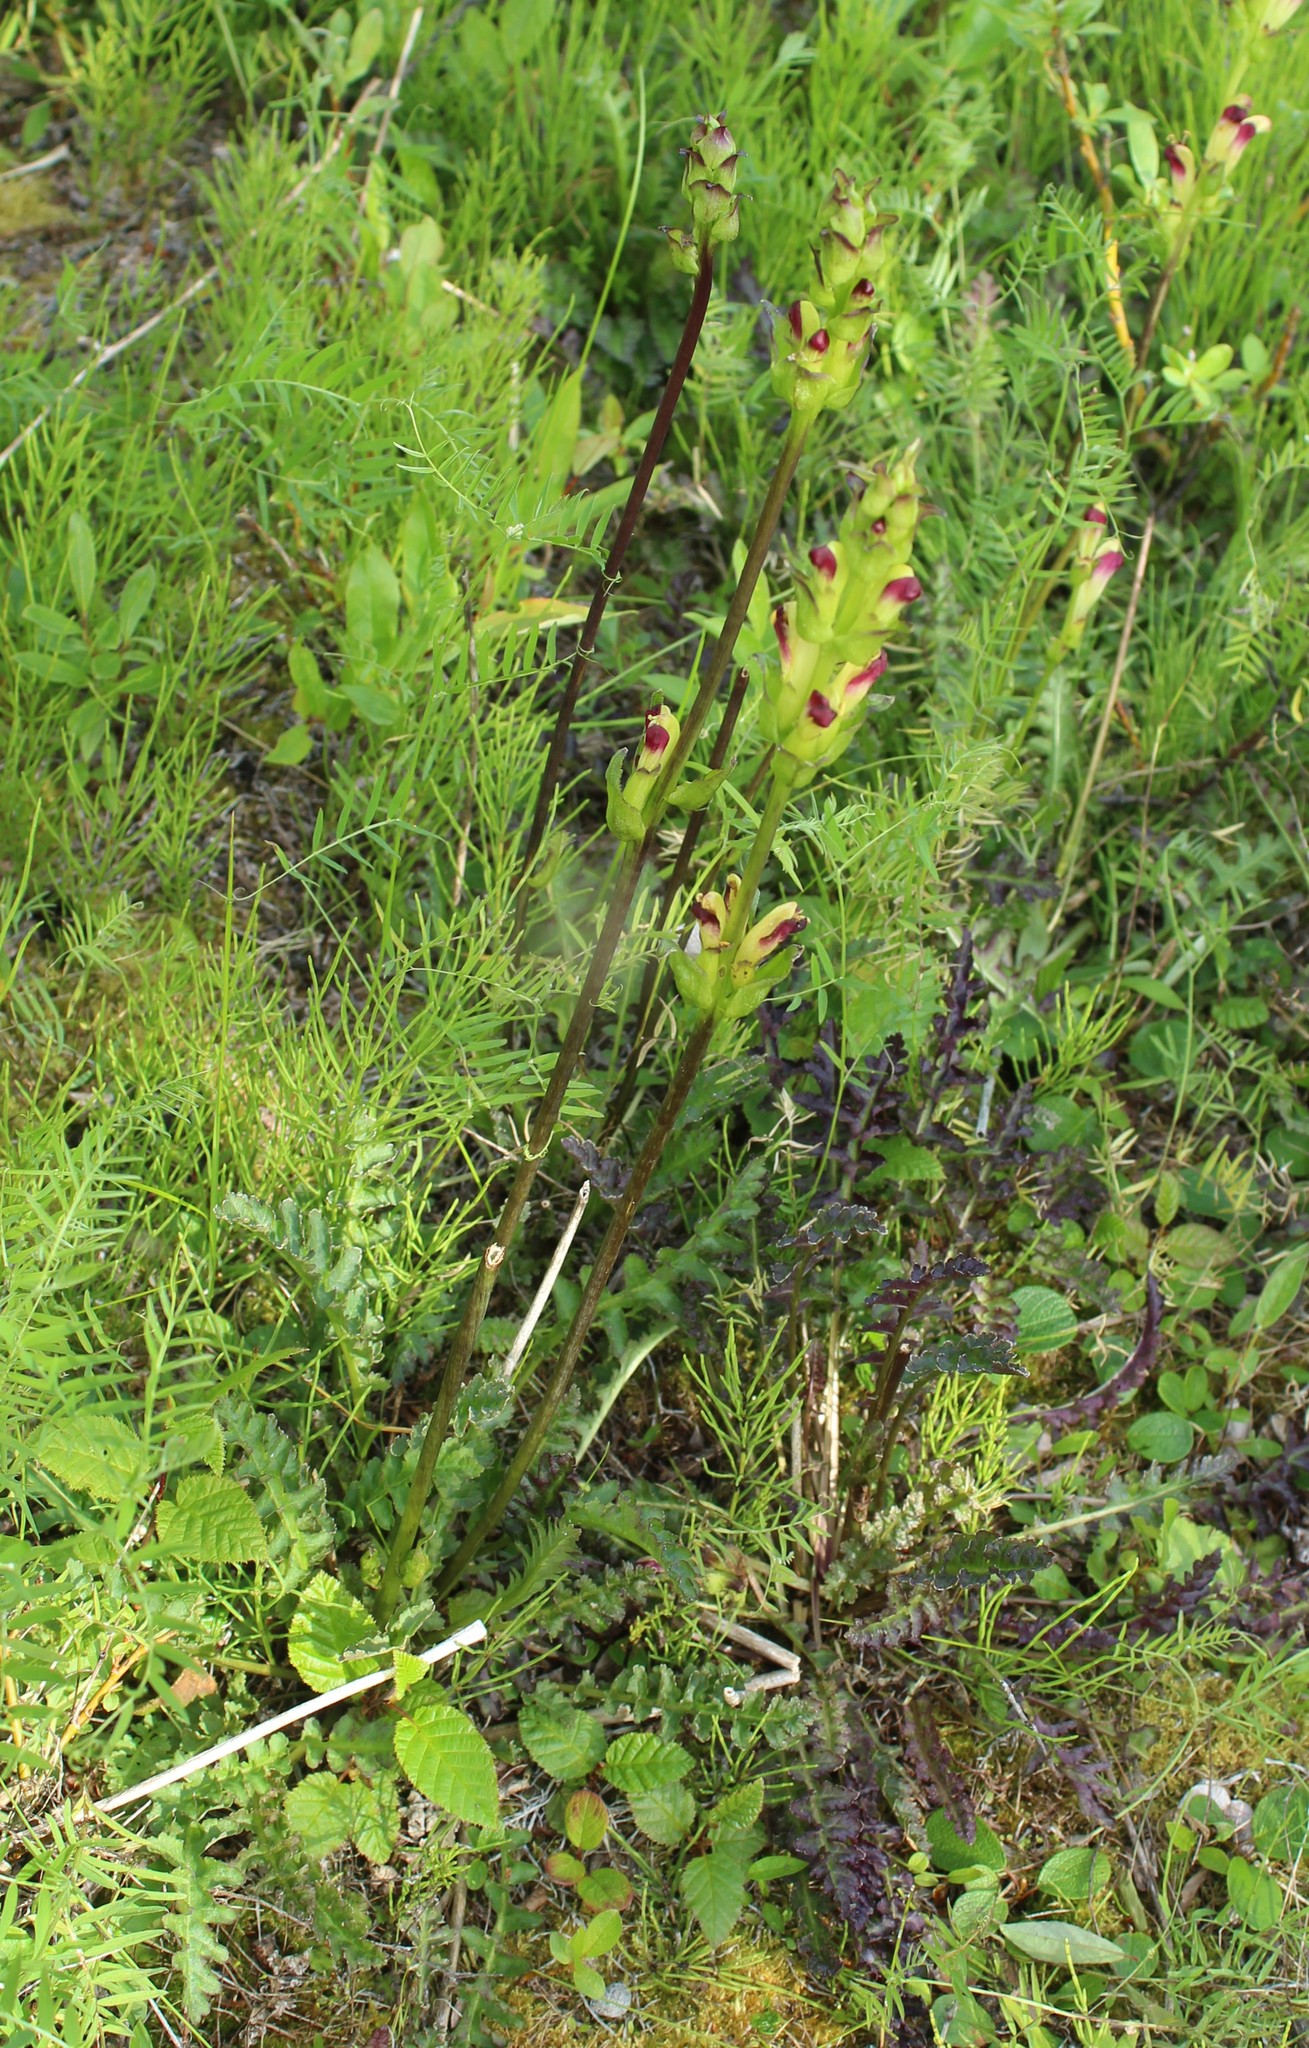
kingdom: Plantae
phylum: Tracheophyta
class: Magnoliopsida
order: Lamiales
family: Orobanchaceae
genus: Pedicularis
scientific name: Pedicularis sceptrum-carolinum
